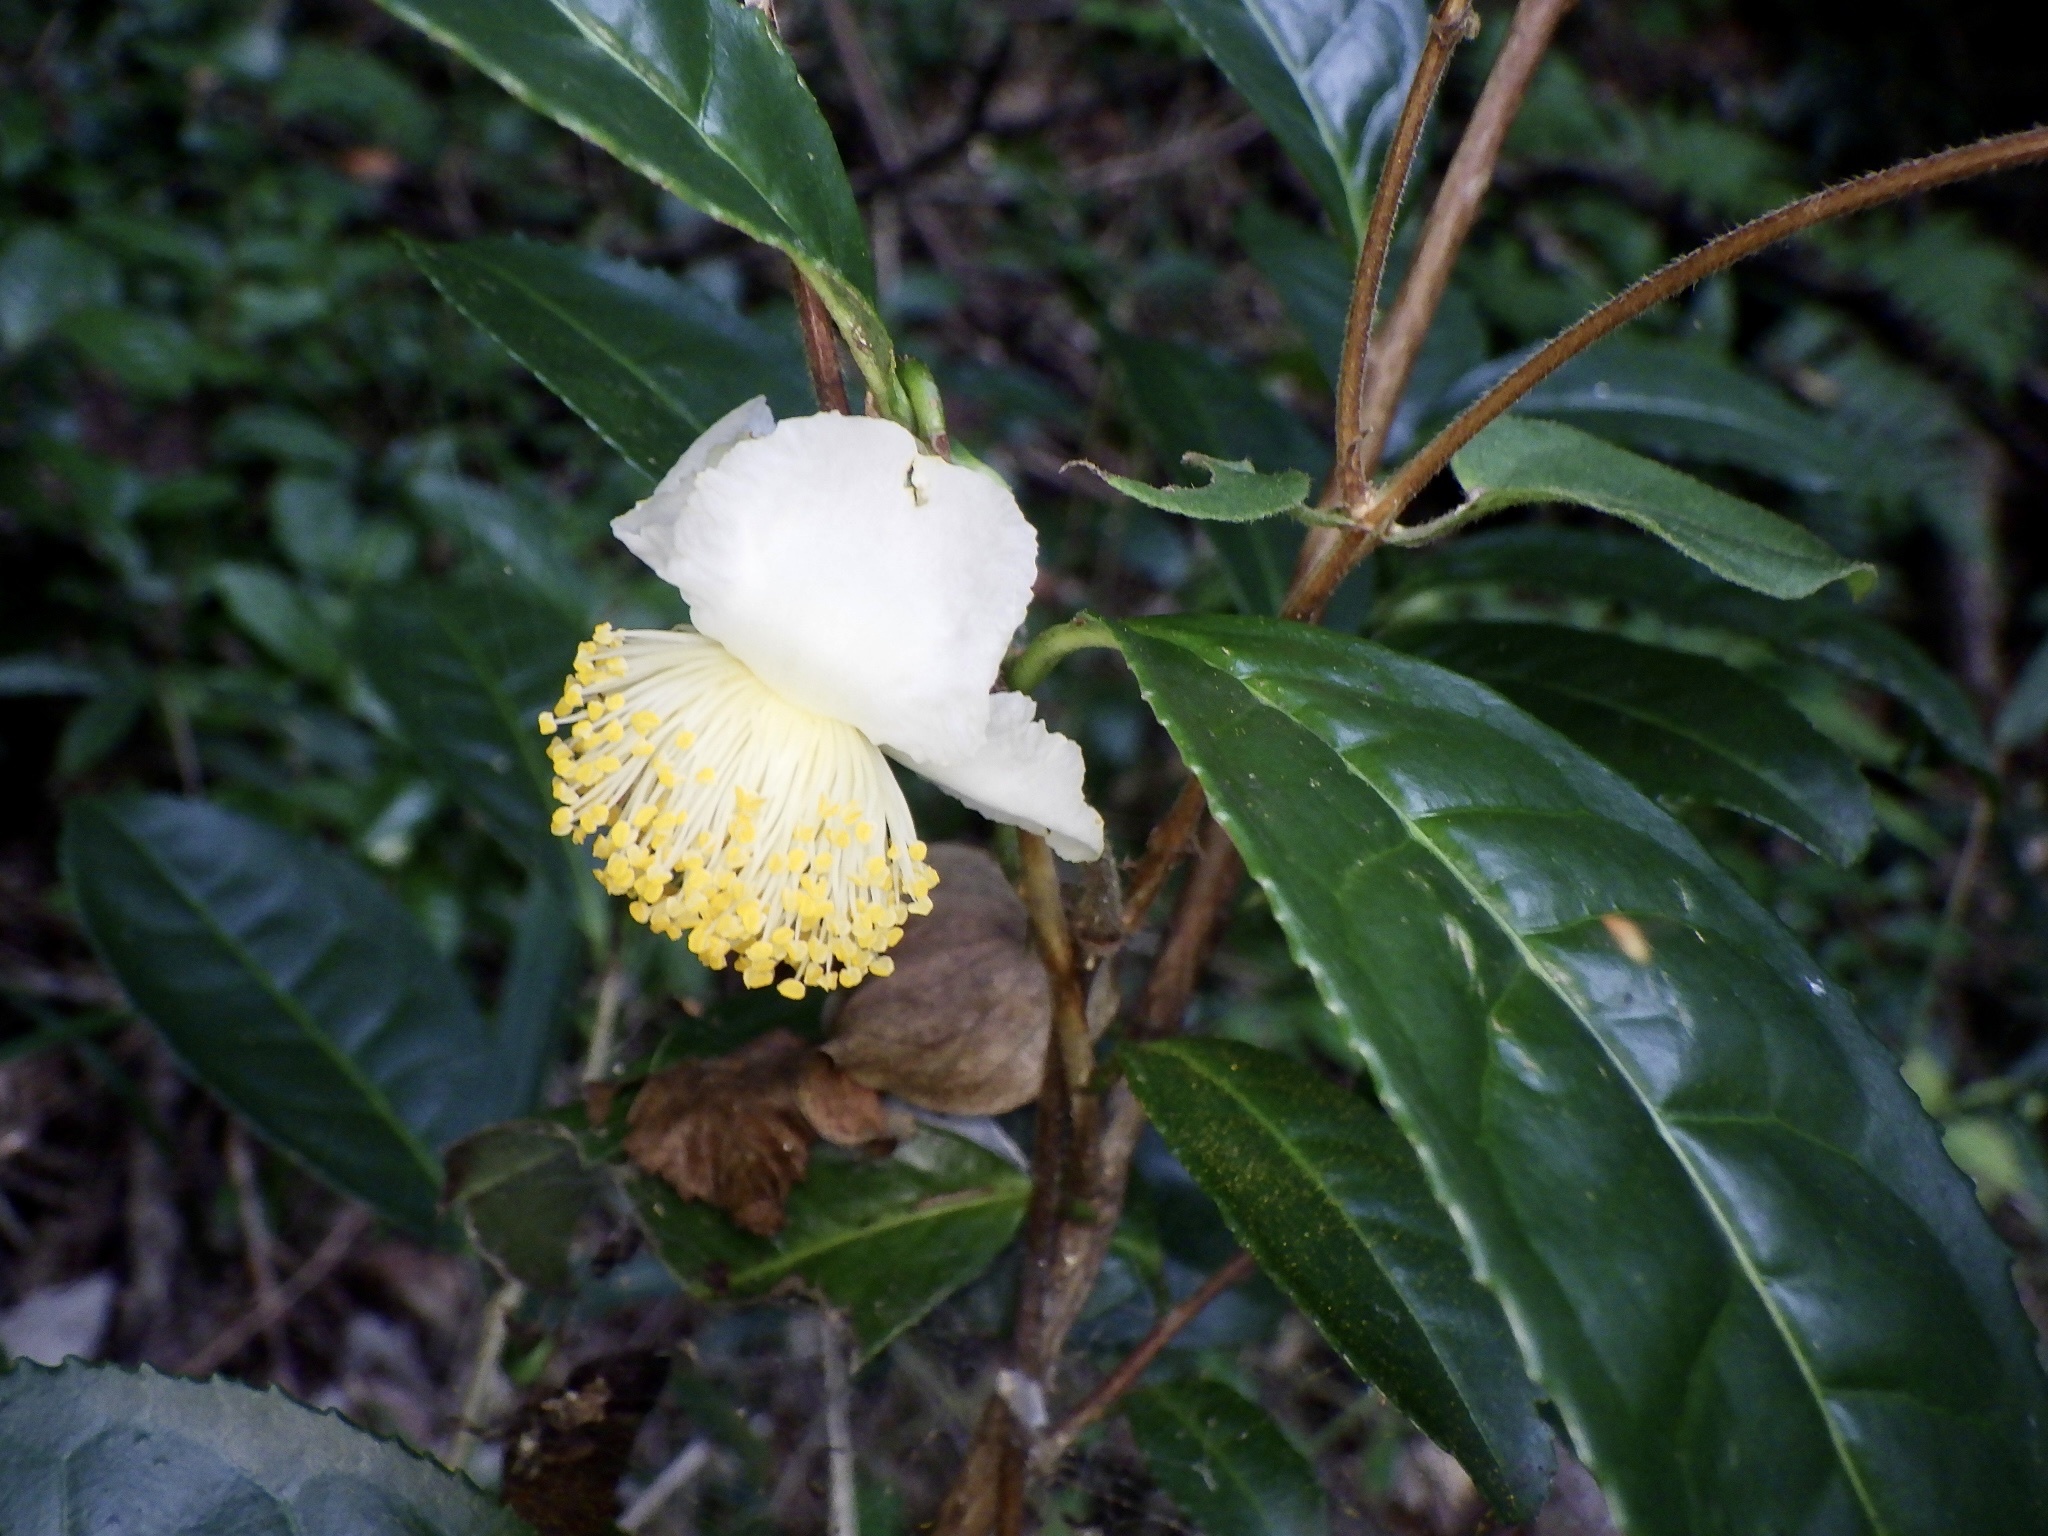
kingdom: Plantae
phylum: Tracheophyta
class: Magnoliopsida
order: Ericales
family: Theaceae
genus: Camellia
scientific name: Camellia sinensis
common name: Tea
